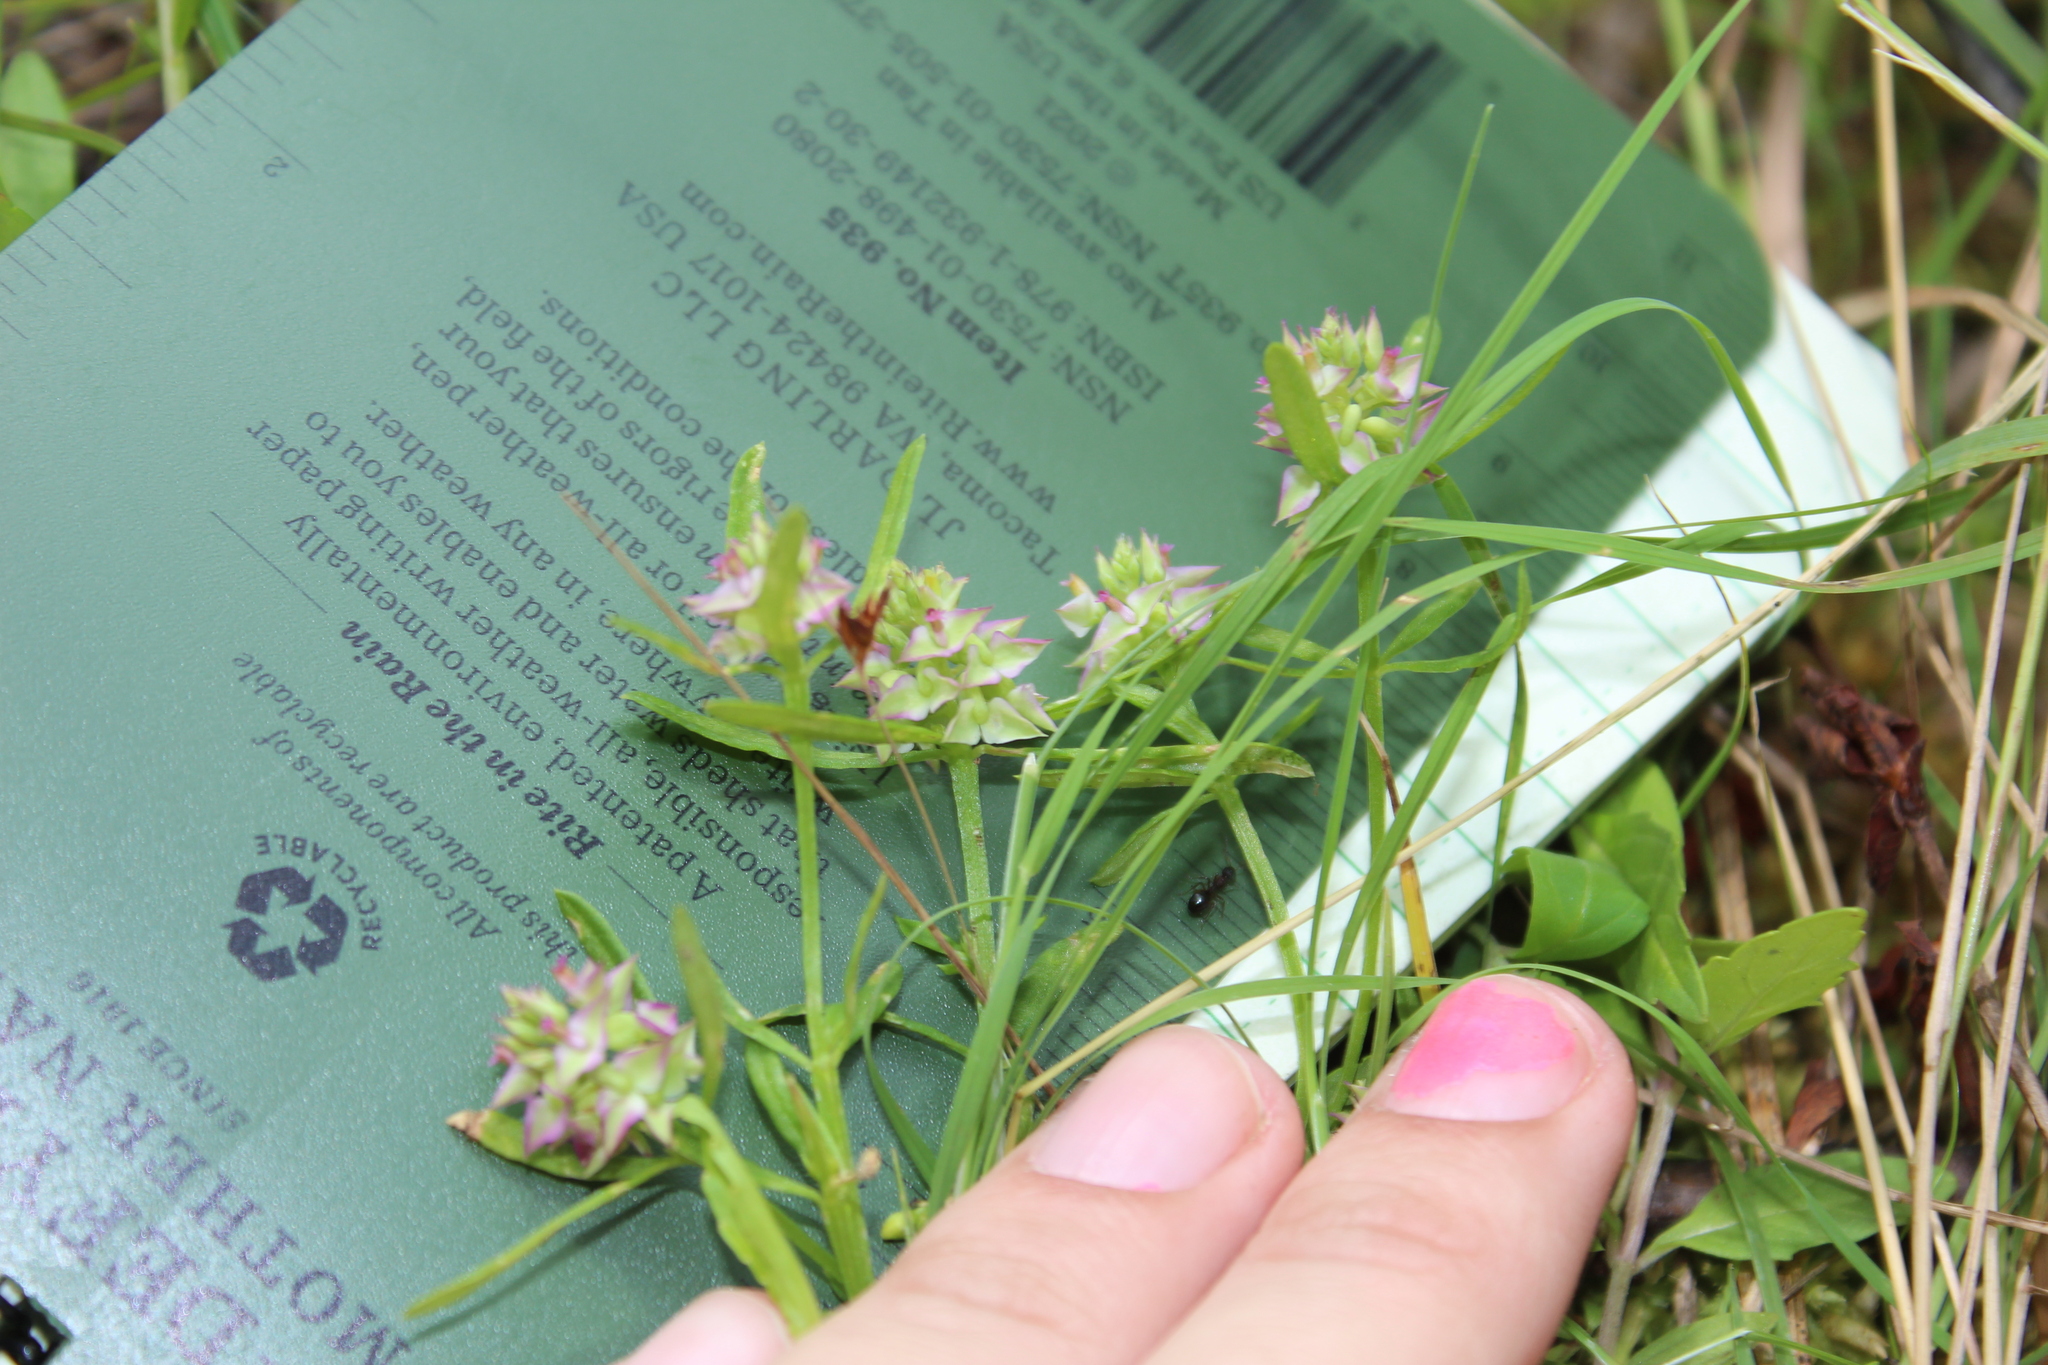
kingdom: Plantae
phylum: Tracheophyta
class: Magnoliopsida
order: Fabales
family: Polygalaceae
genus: Polygala
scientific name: Polygala cruciata
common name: Drumheads
